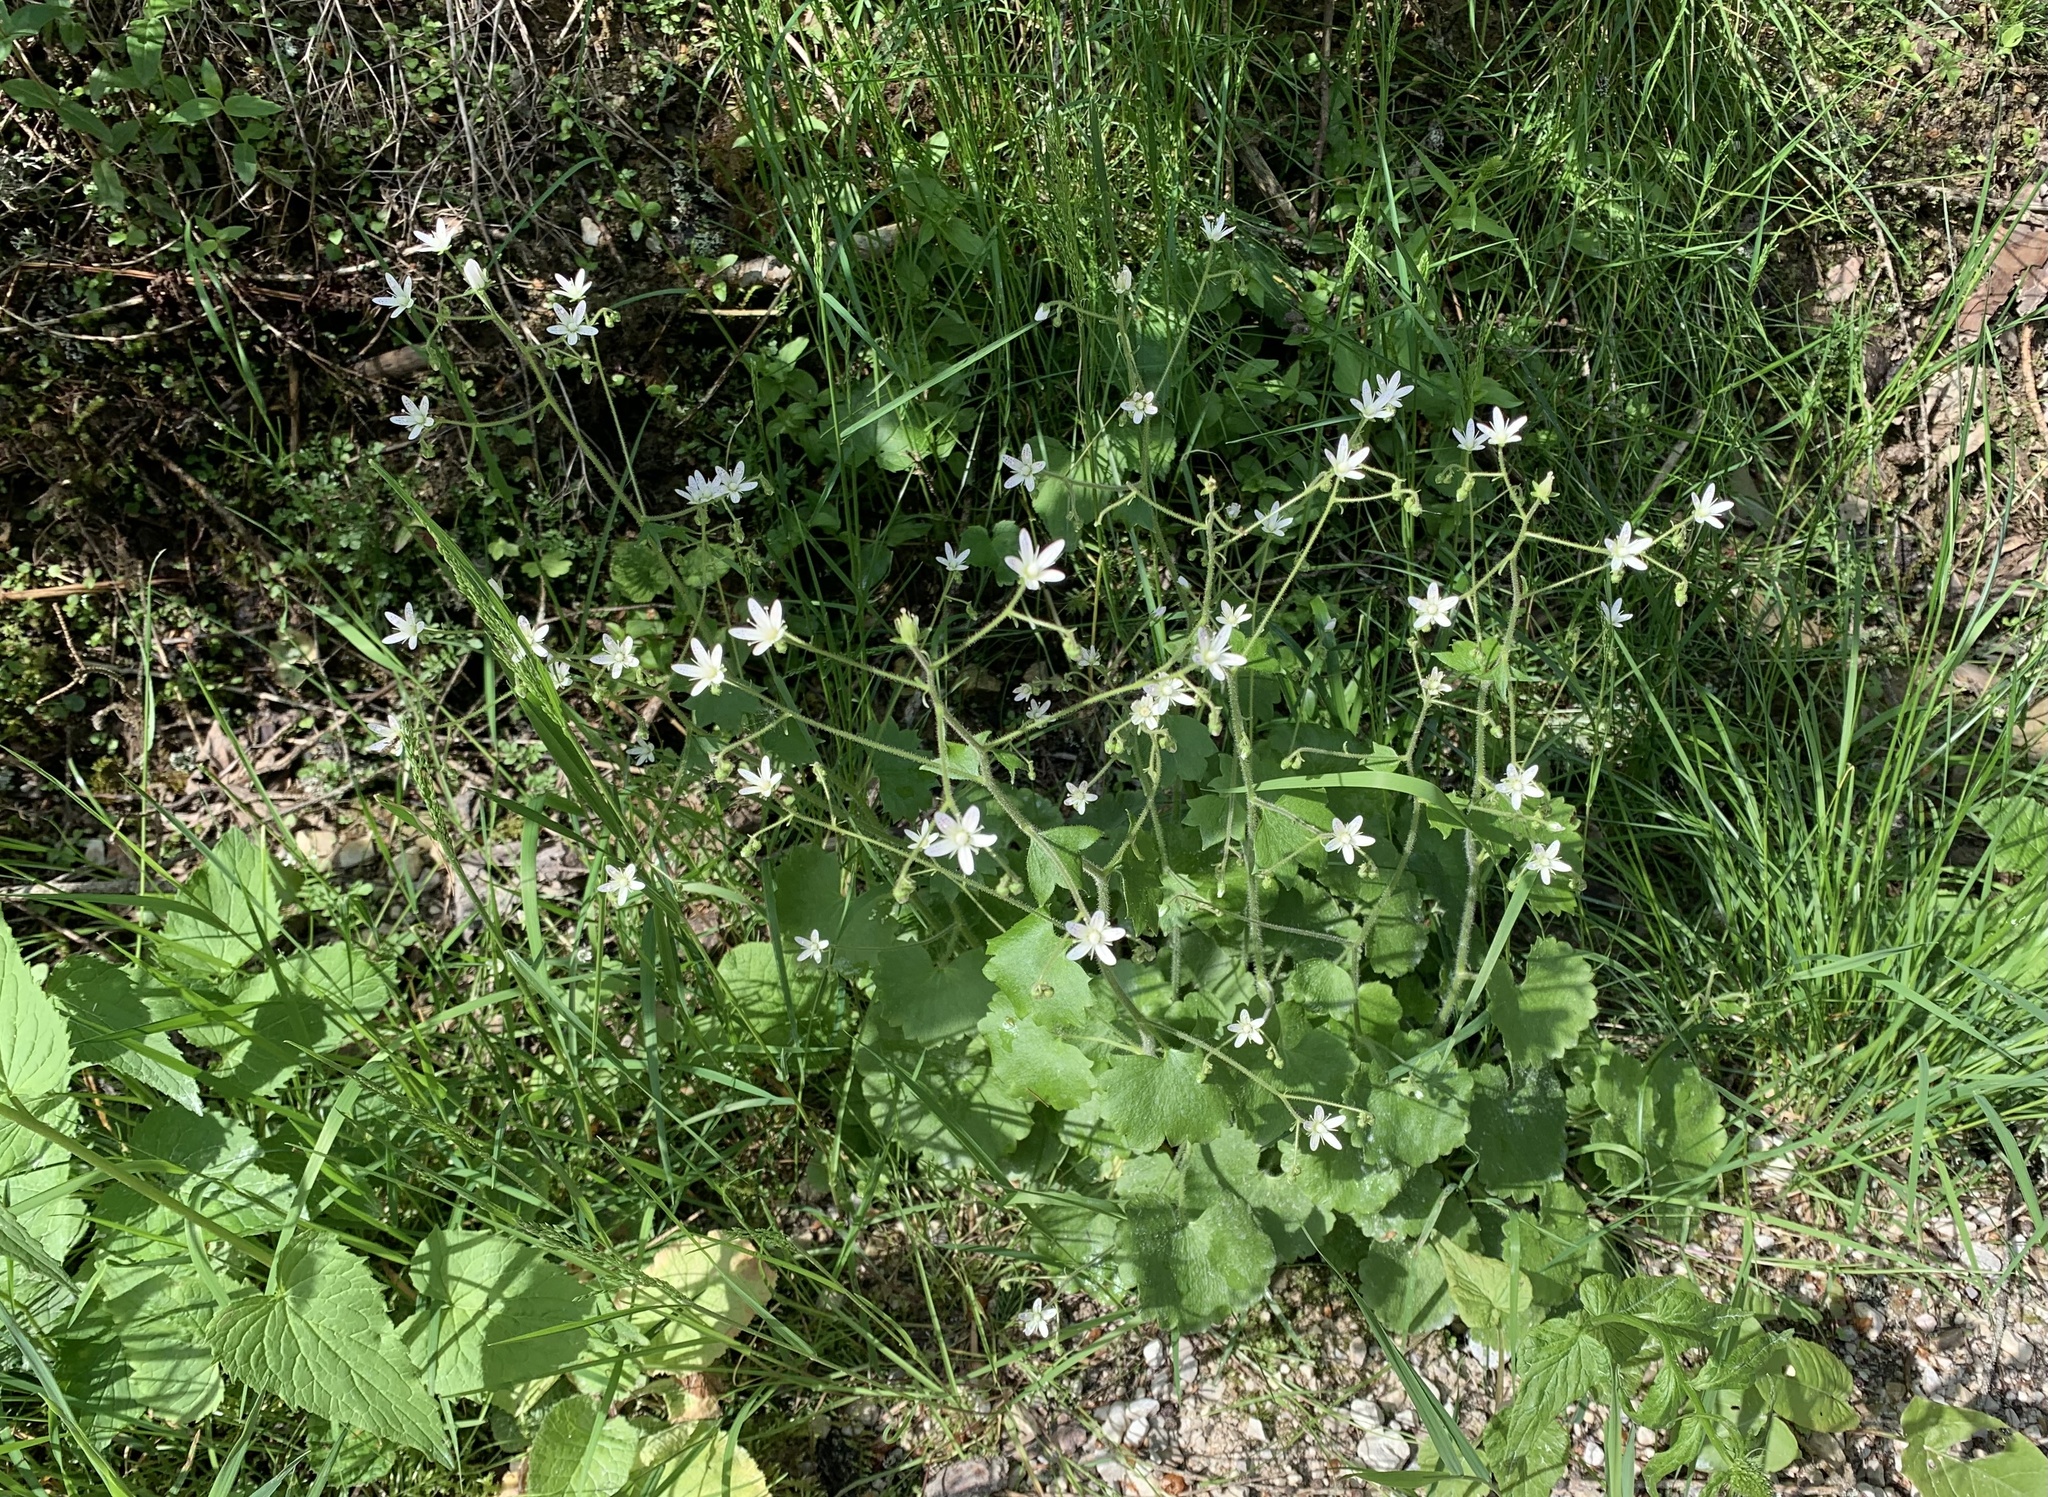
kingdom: Plantae
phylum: Tracheophyta
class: Magnoliopsida
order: Saxifragales
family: Saxifragaceae
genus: Saxifraga
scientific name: Saxifraga rotundifolia
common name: Round-leaved saxifrage
